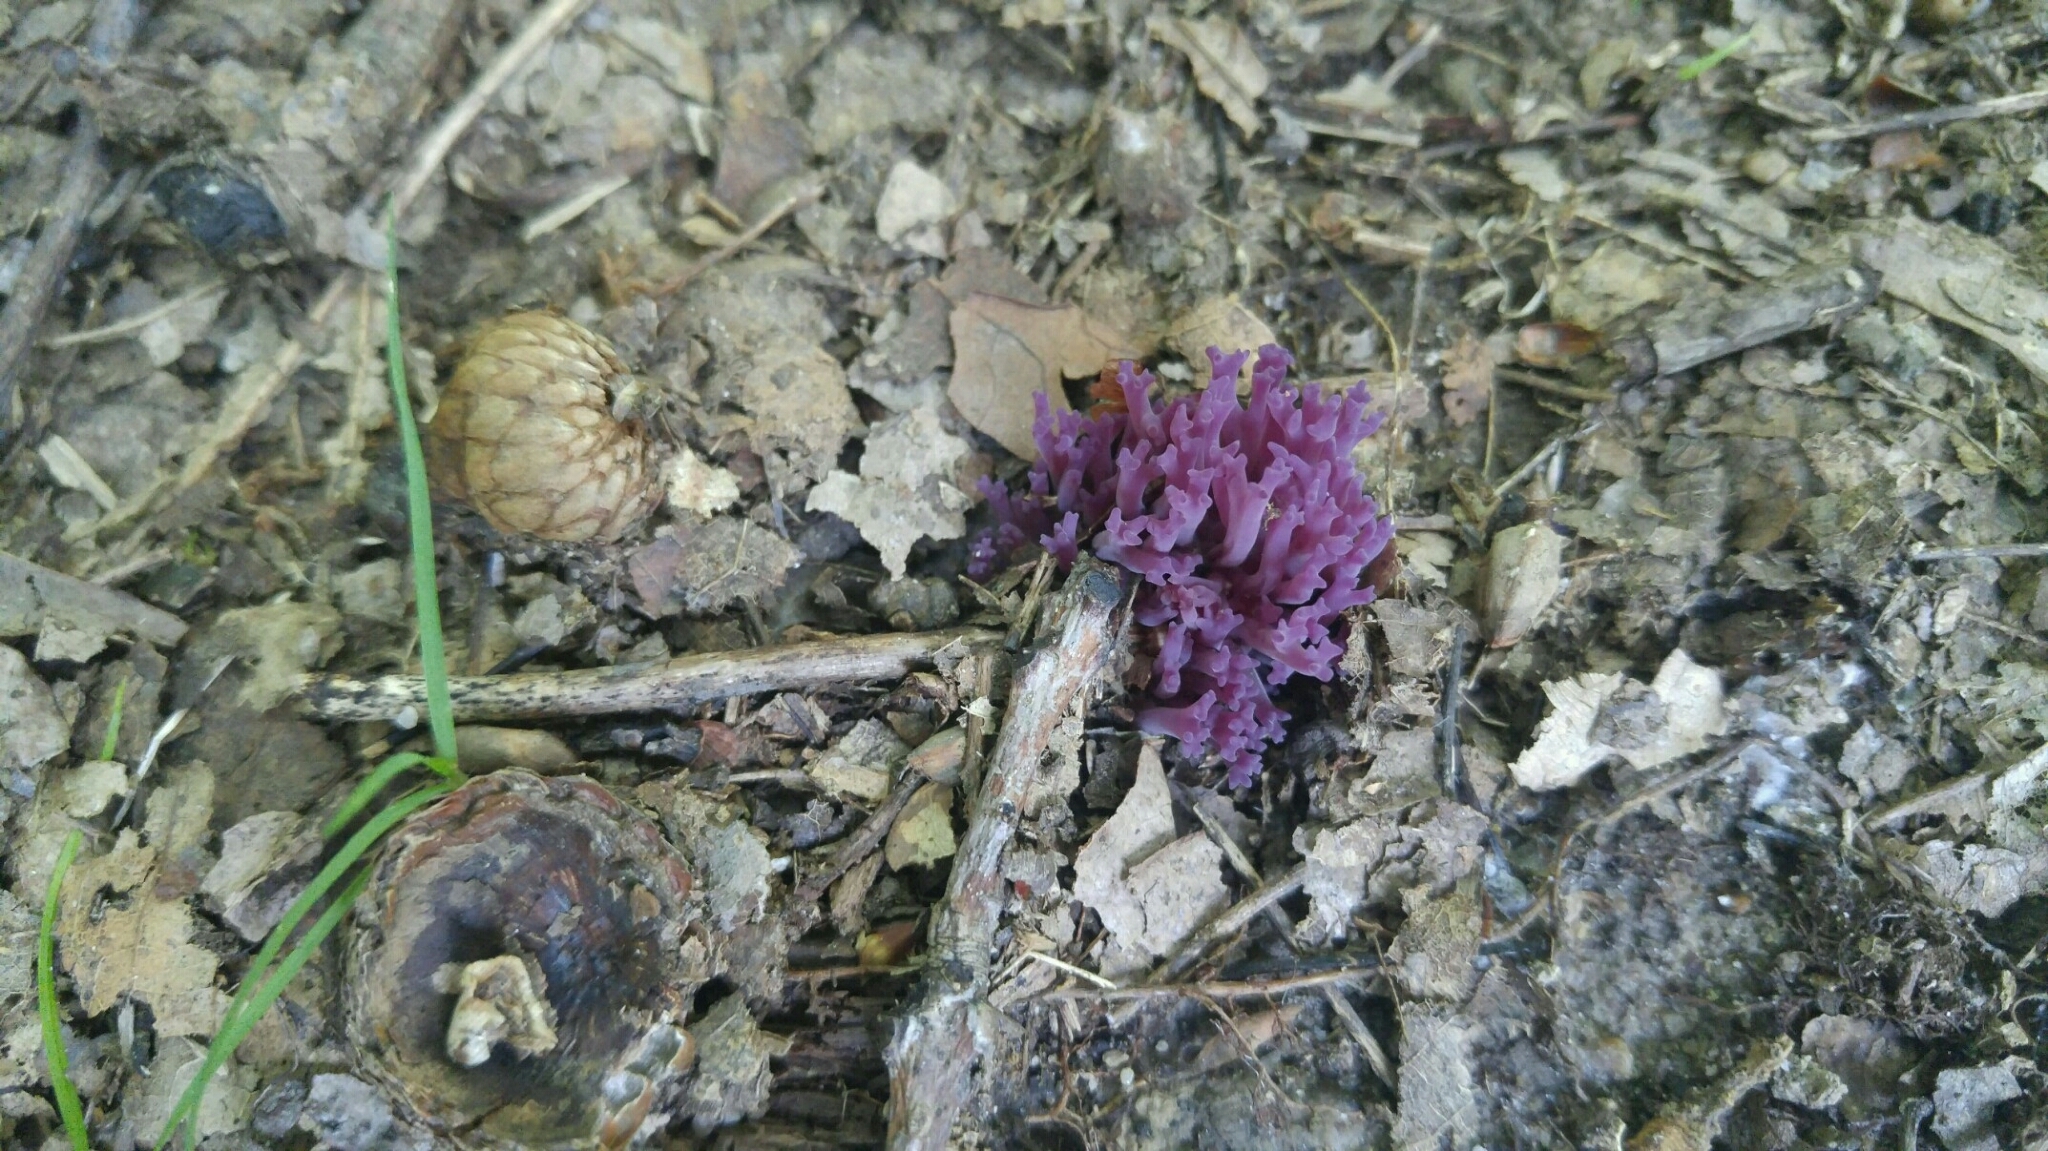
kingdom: Fungi
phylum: Basidiomycota
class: Agaricomycetes
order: Agaricales
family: Clavariaceae
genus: Clavaria
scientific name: Clavaria zollingeri
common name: Violet coral
